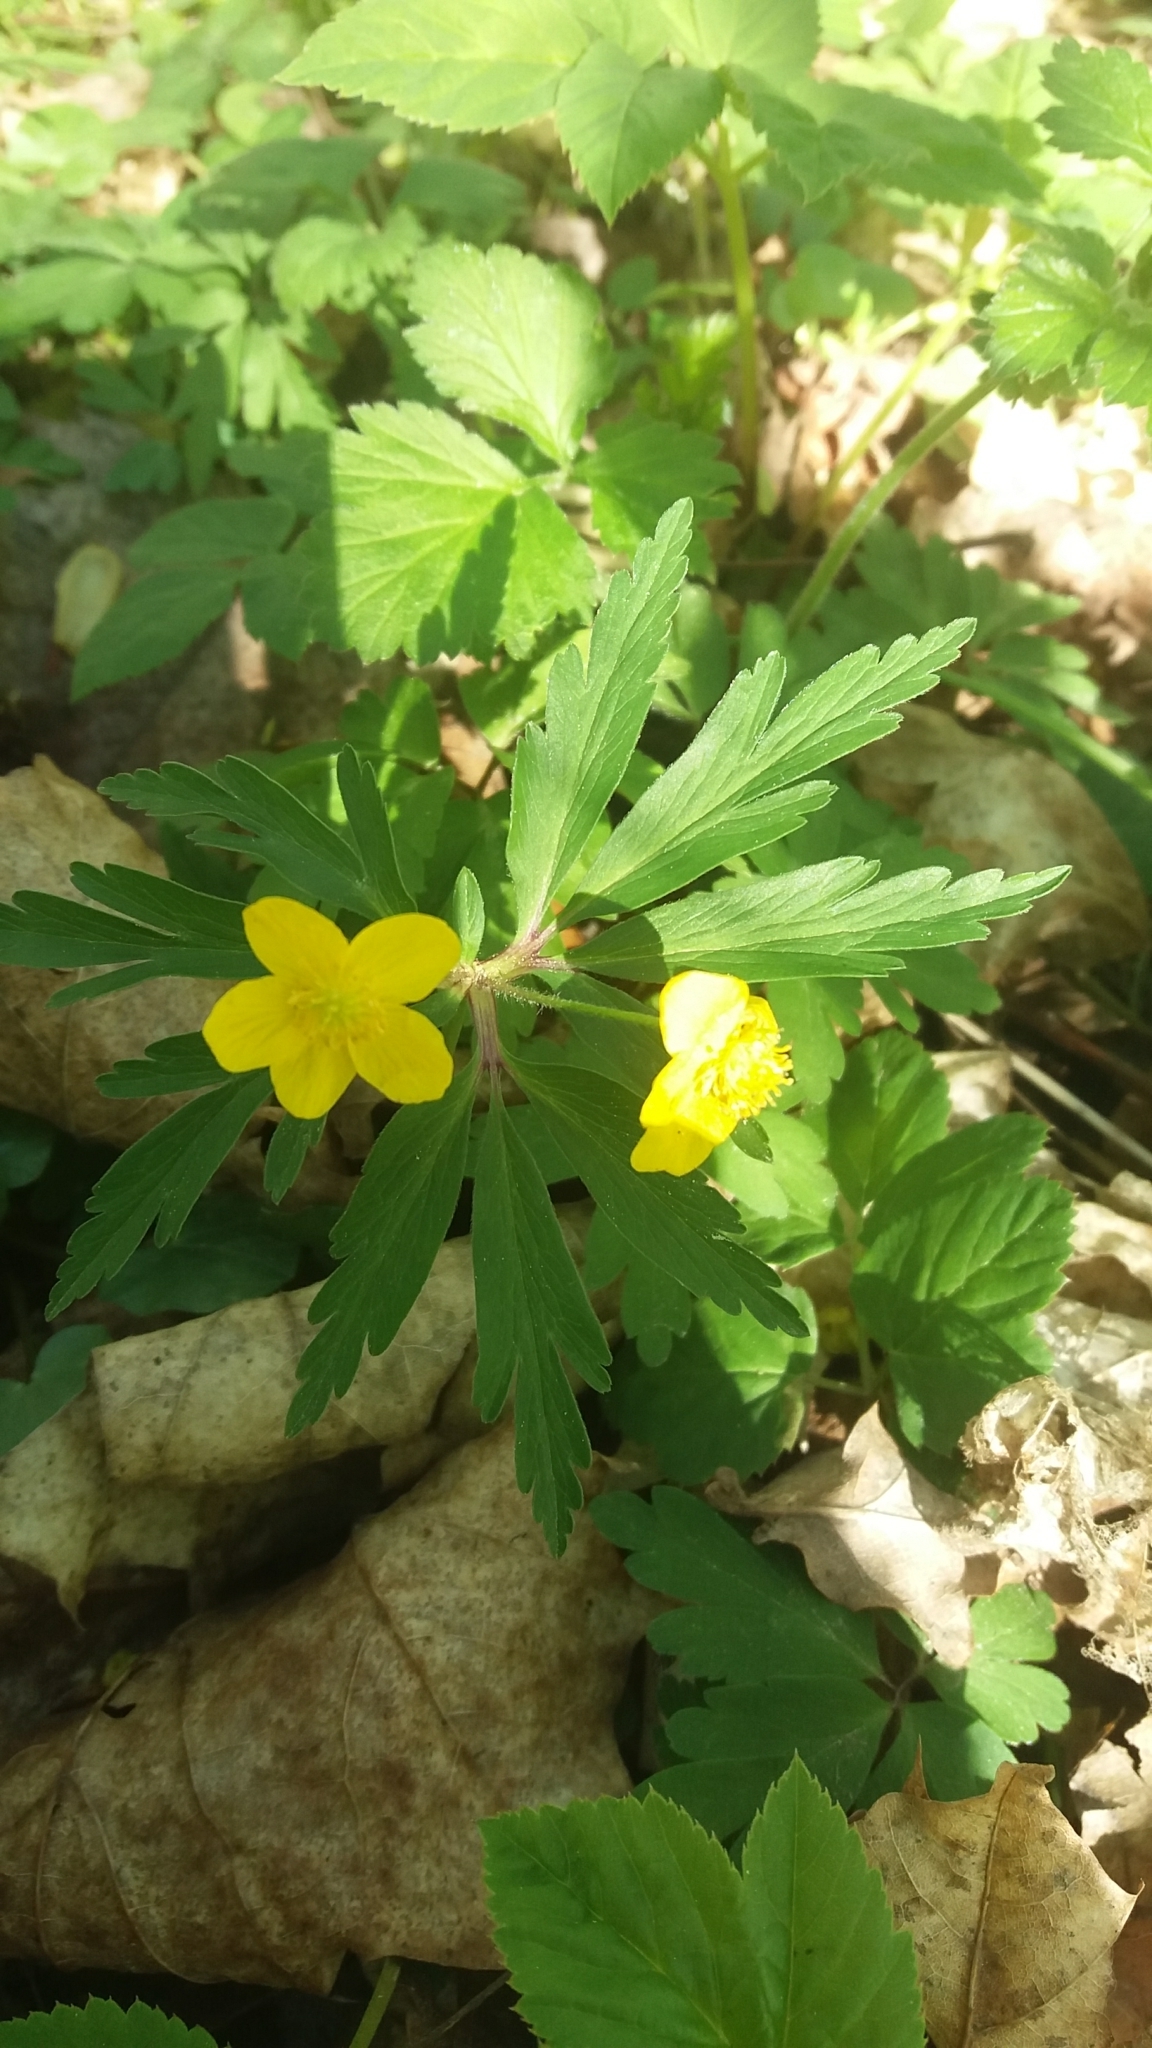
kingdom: Plantae
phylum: Tracheophyta
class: Magnoliopsida
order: Ranunculales
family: Ranunculaceae
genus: Anemone
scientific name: Anemone ranunculoides
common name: Yellow anemone
